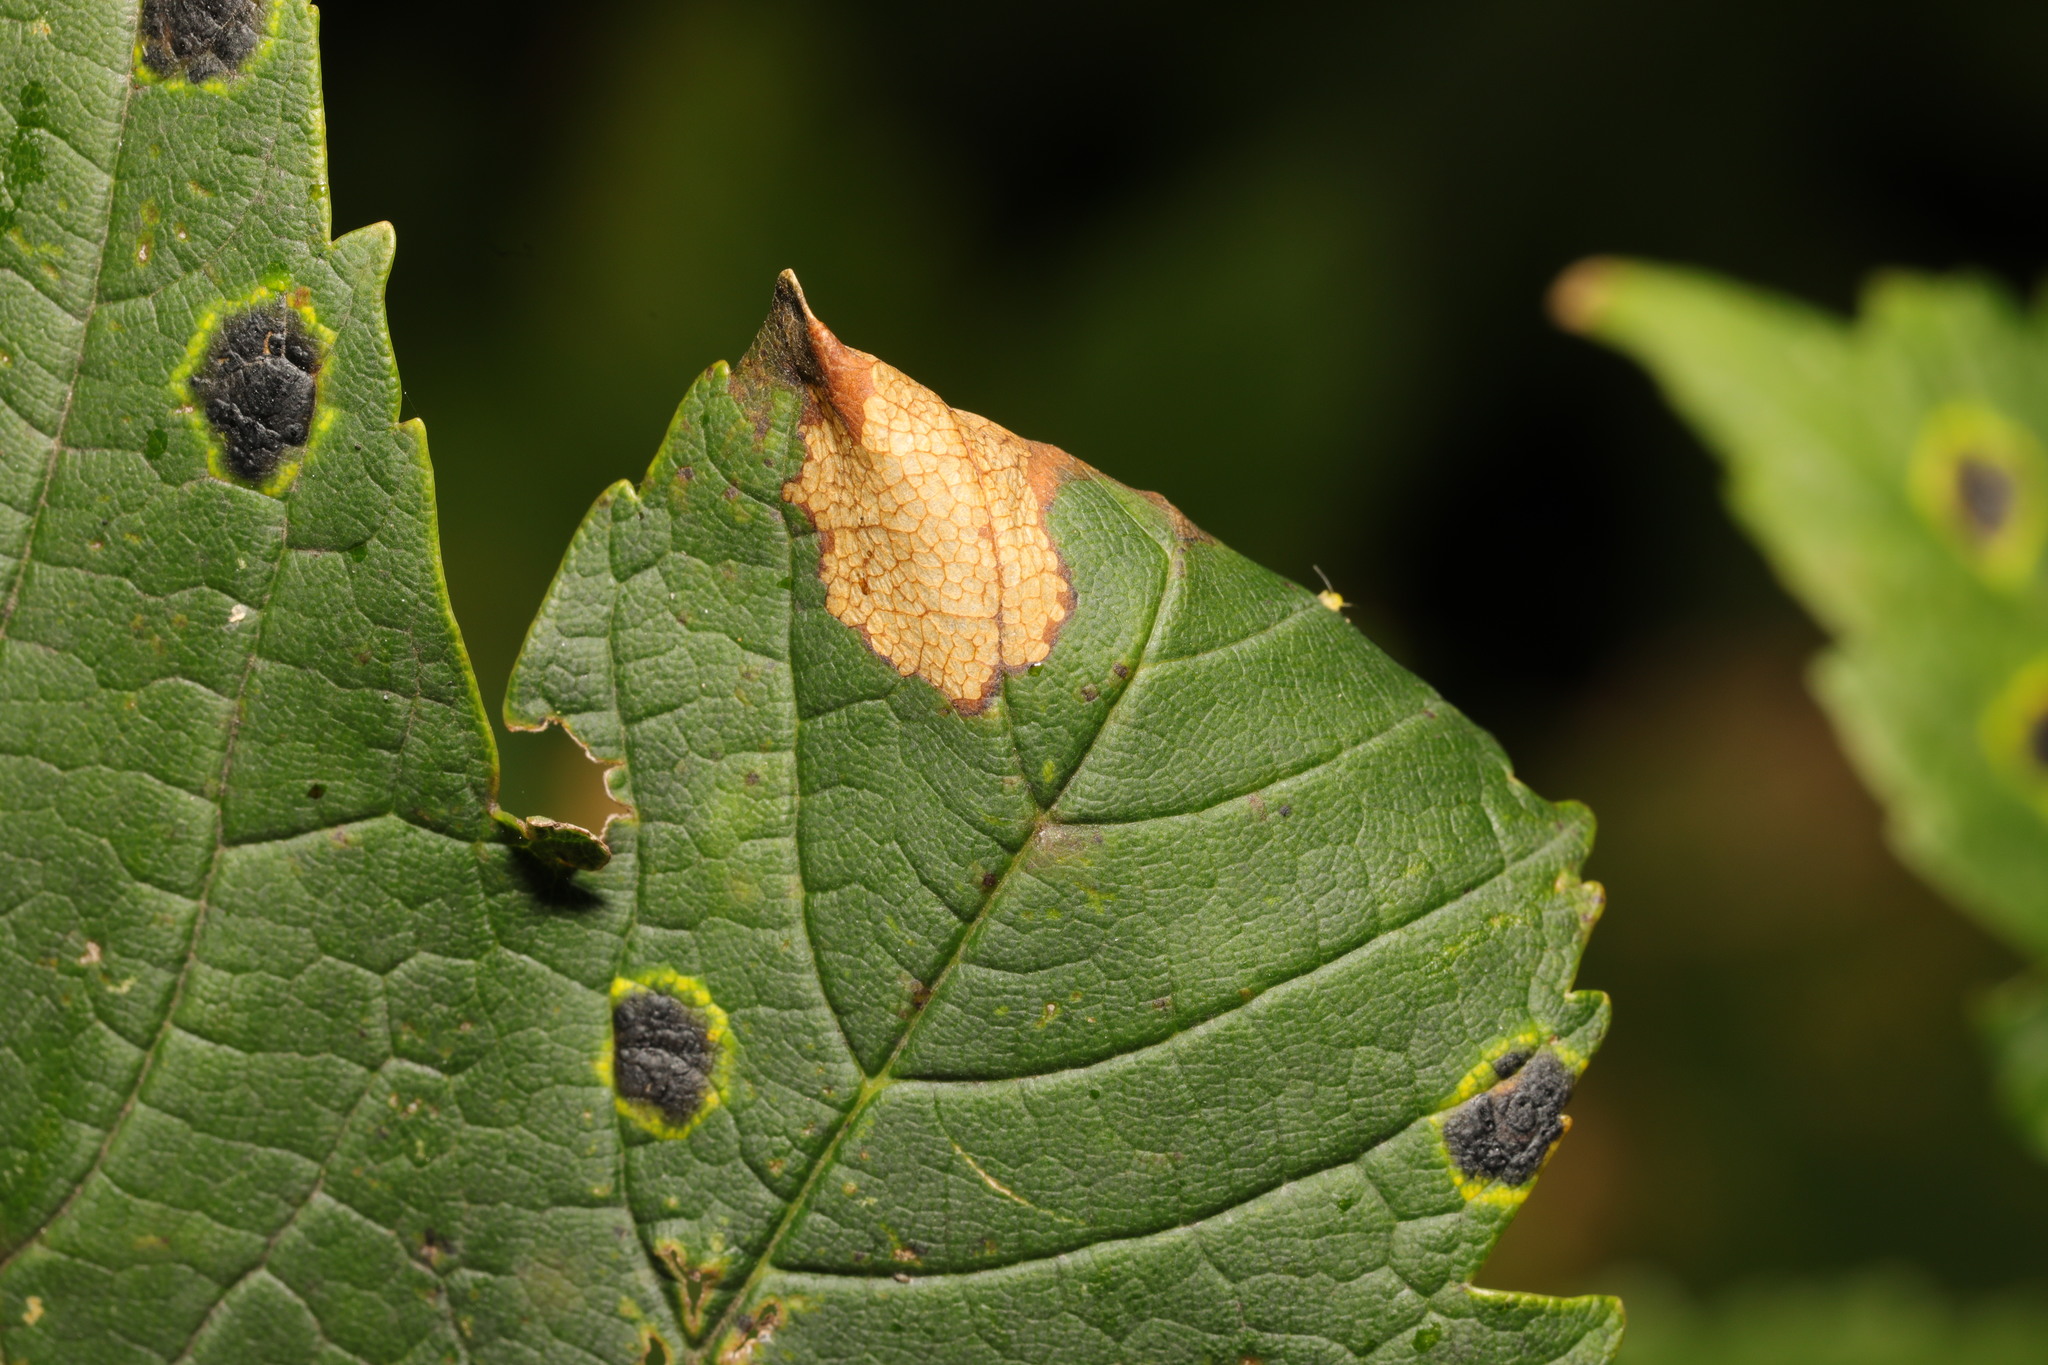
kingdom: Animalia
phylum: Arthropoda
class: Insecta
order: Lepidoptera
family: Gracillariidae
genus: Caloptilia
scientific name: Caloptilia rufipennella
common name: Small red slender
